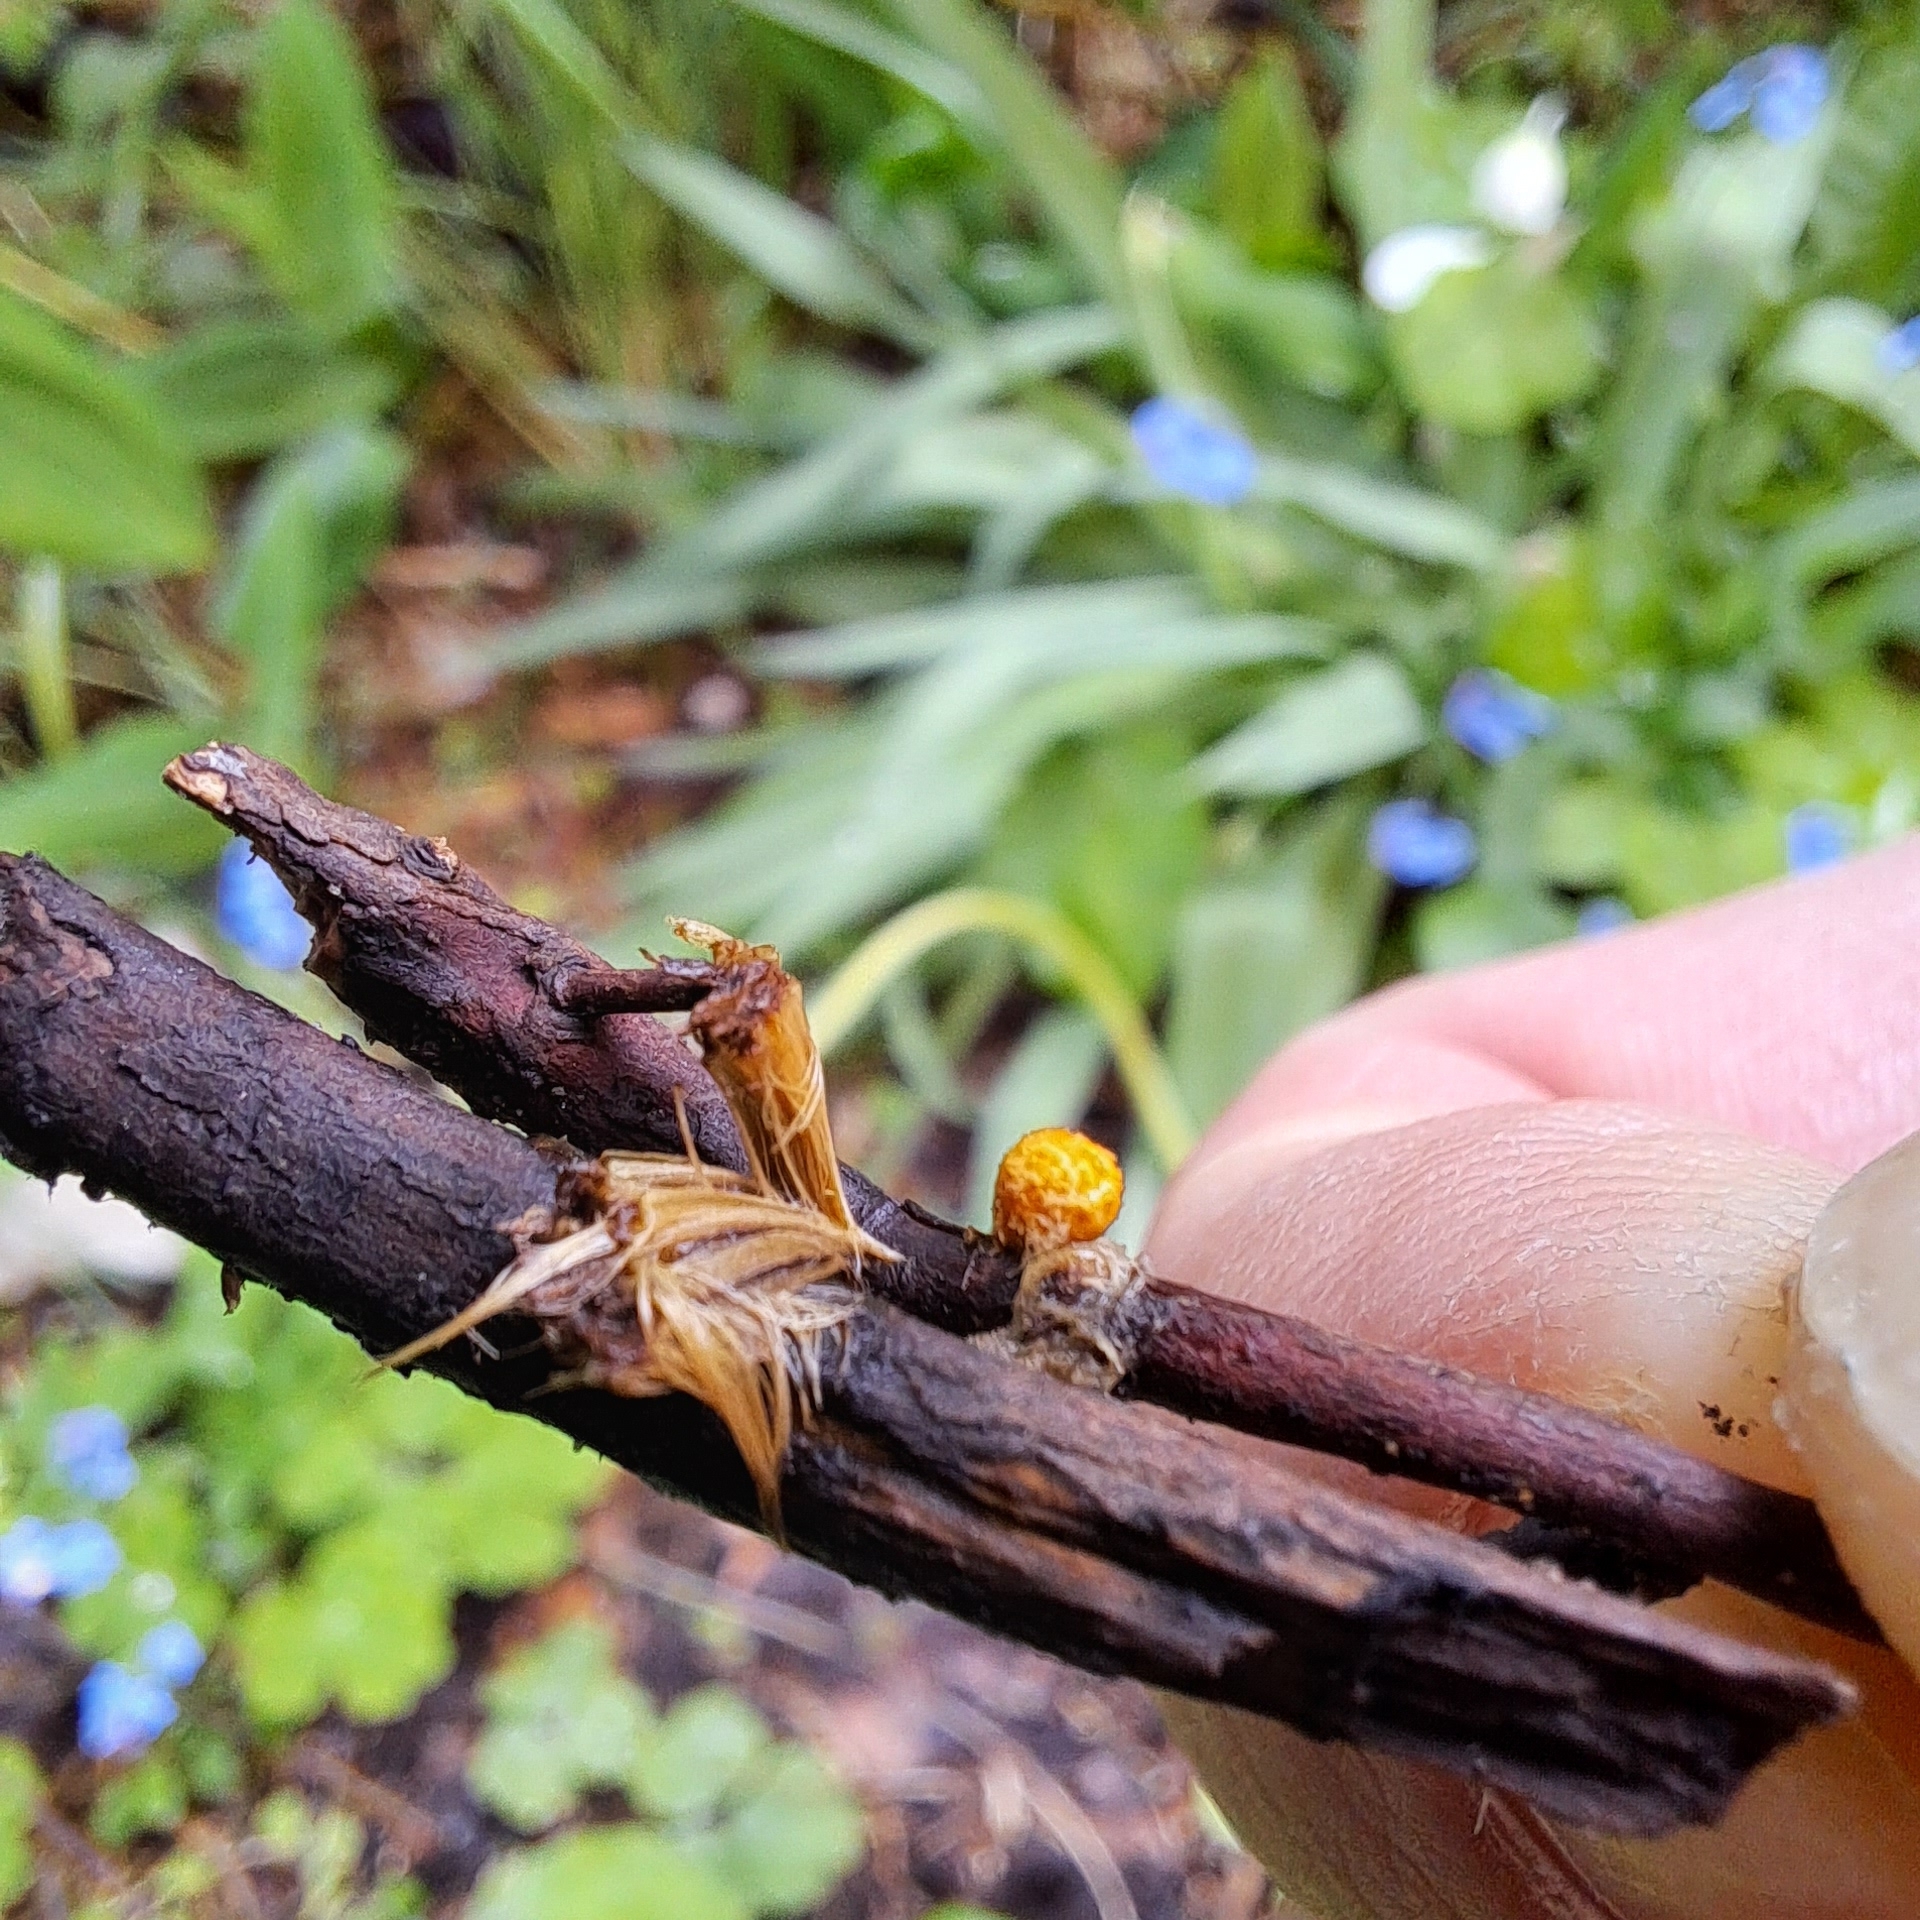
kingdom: Fungi
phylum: Basidiomycota
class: Agaricomycetes
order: Agaricales
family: Nidulariaceae
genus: Crucibulum
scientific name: Crucibulum laeve
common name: Common bird's nest
